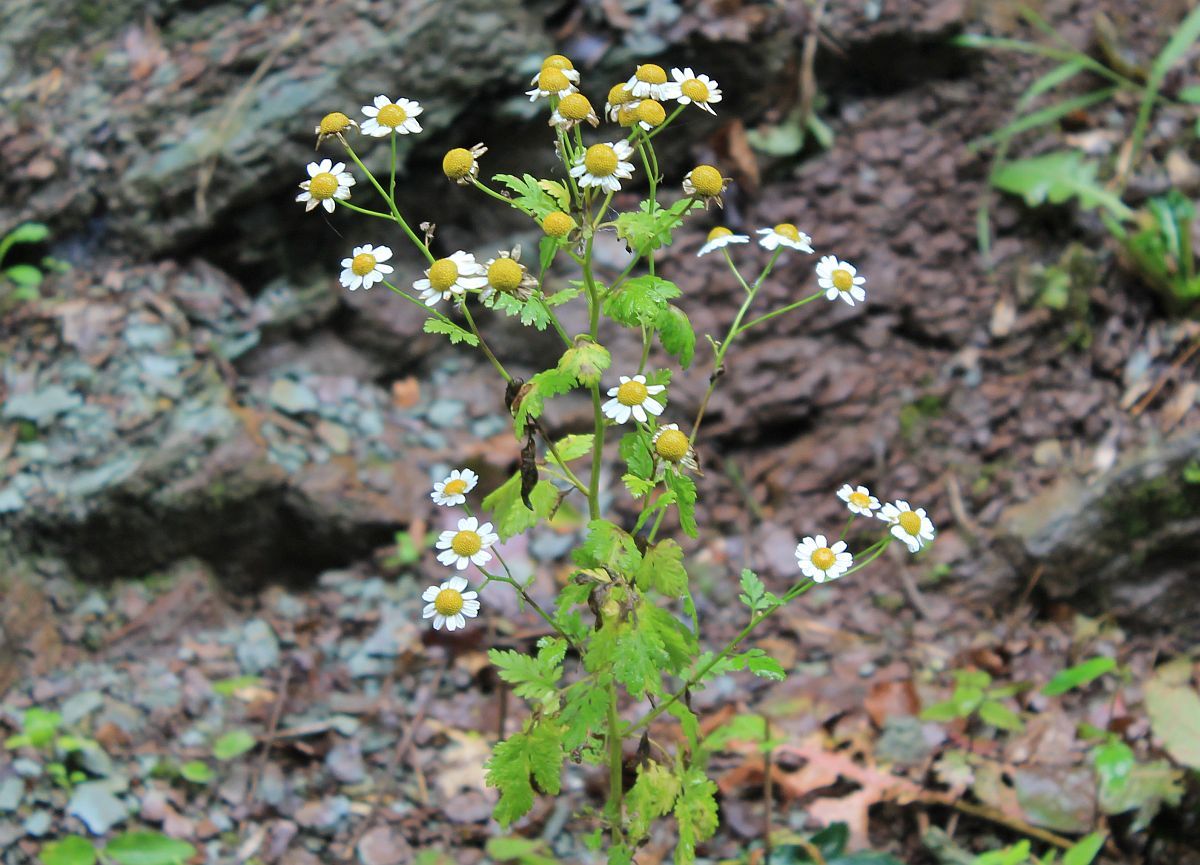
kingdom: Plantae
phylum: Tracheophyta
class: Magnoliopsida
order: Asterales
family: Asteraceae
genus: Tanacetum
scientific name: Tanacetum parthenium
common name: Feverfew
